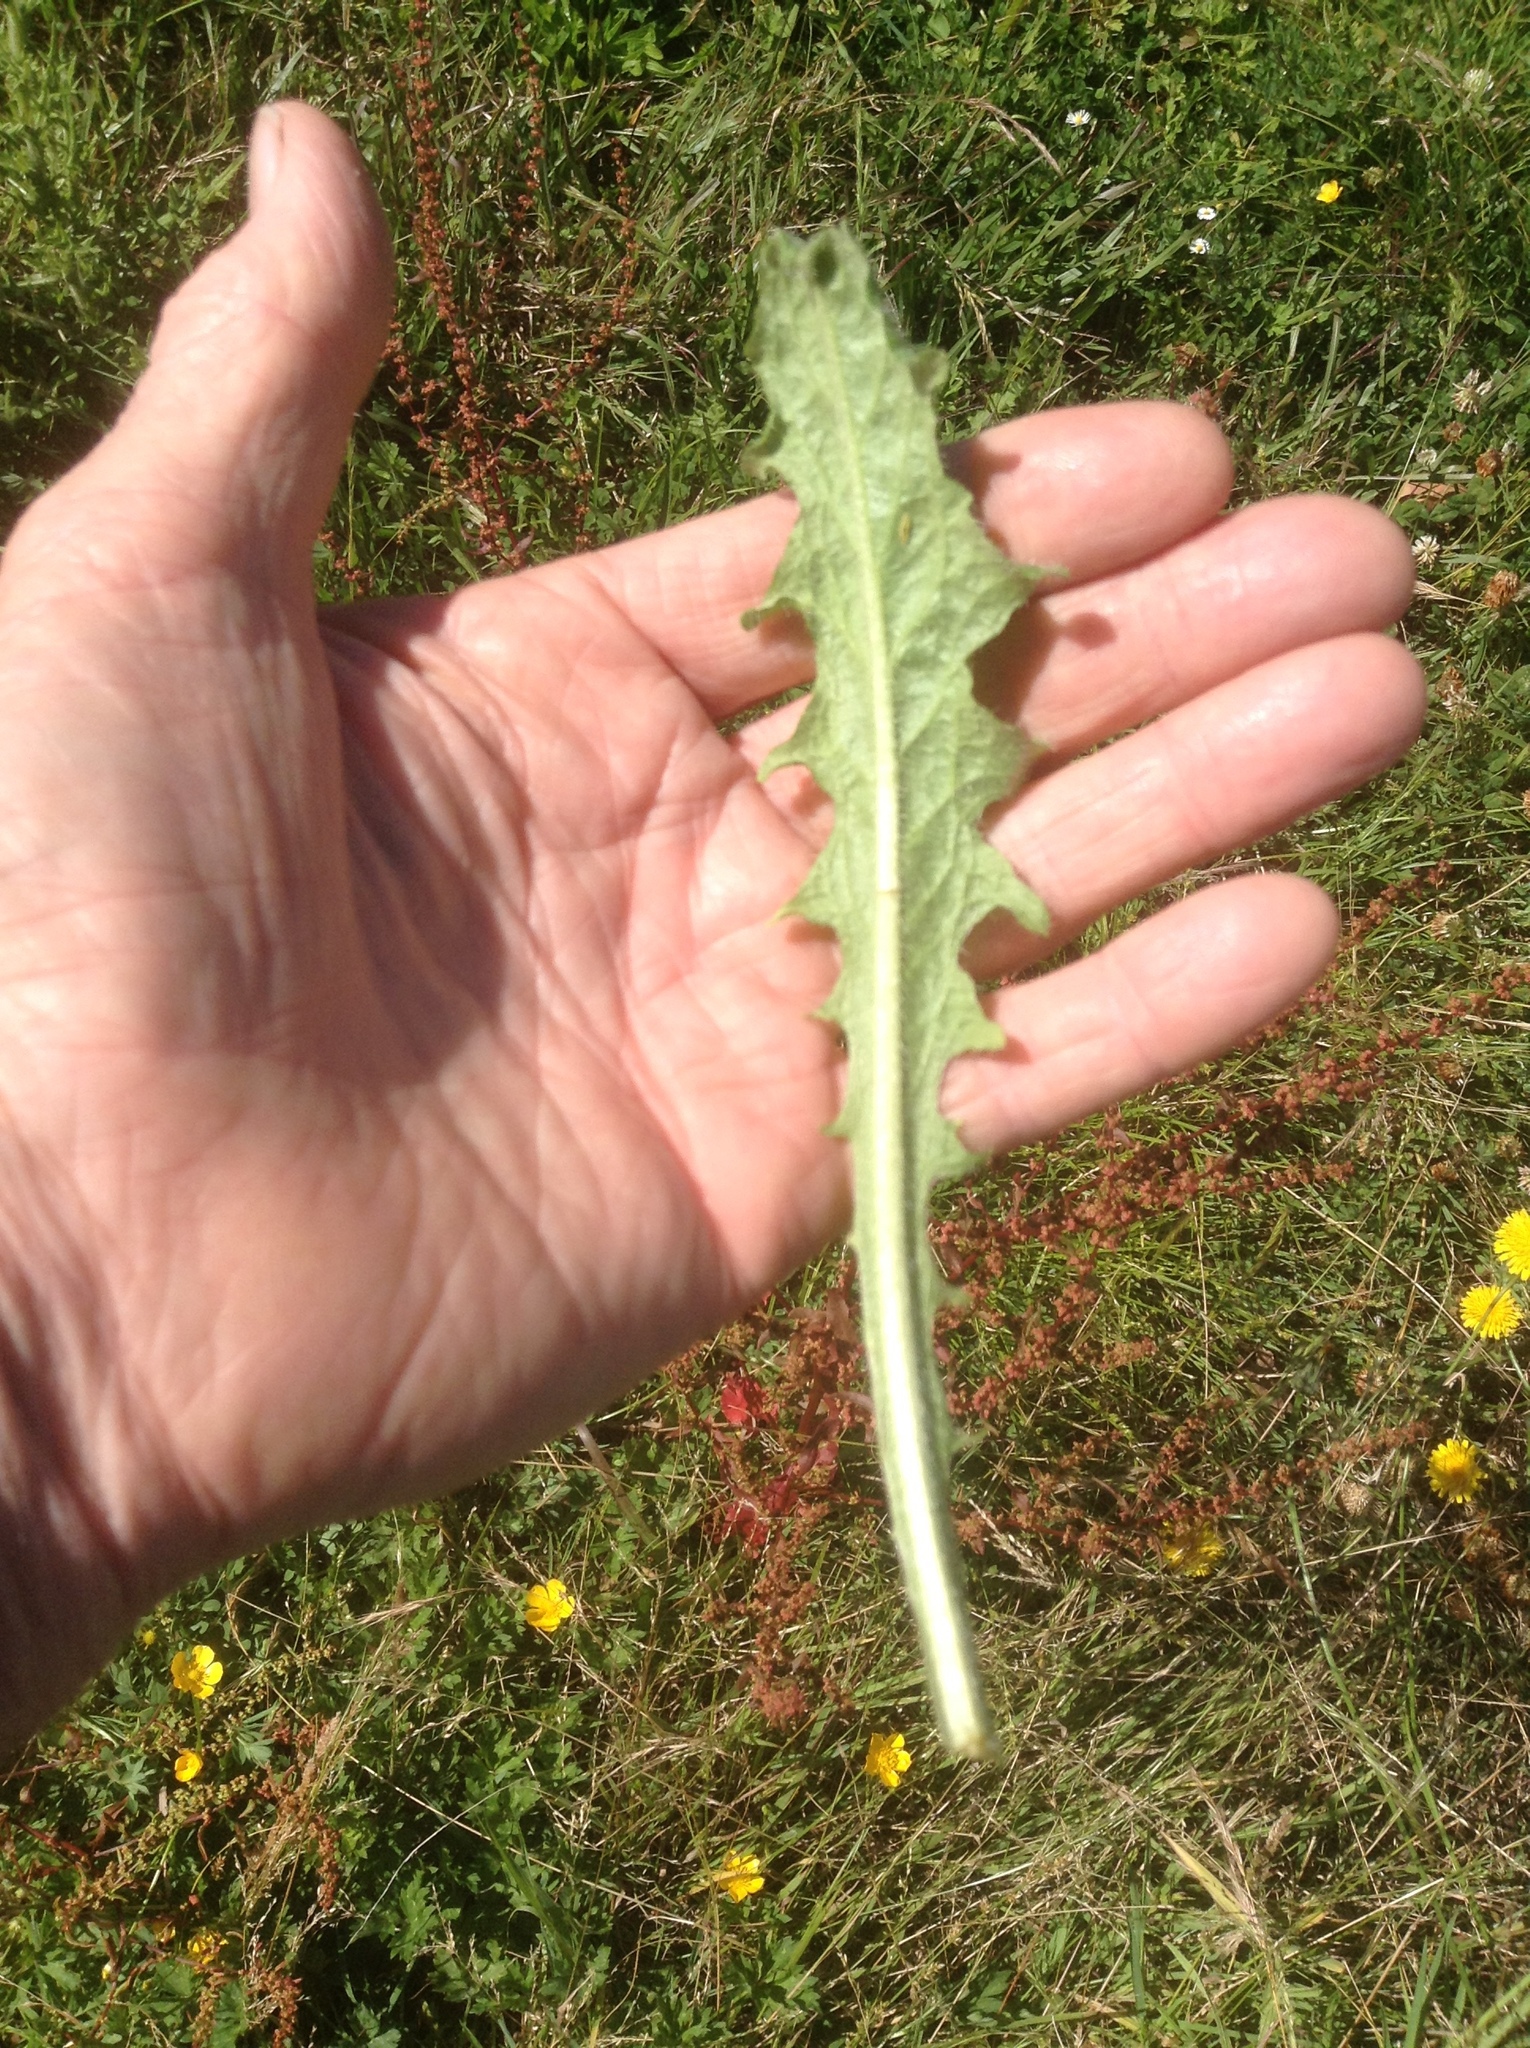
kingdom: Plantae
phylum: Tracheophyta
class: Magnoliopsida
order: Asterales
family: Asteraceae
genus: Hypochaeris
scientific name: Hypochaeris radicata
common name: Flatweed
